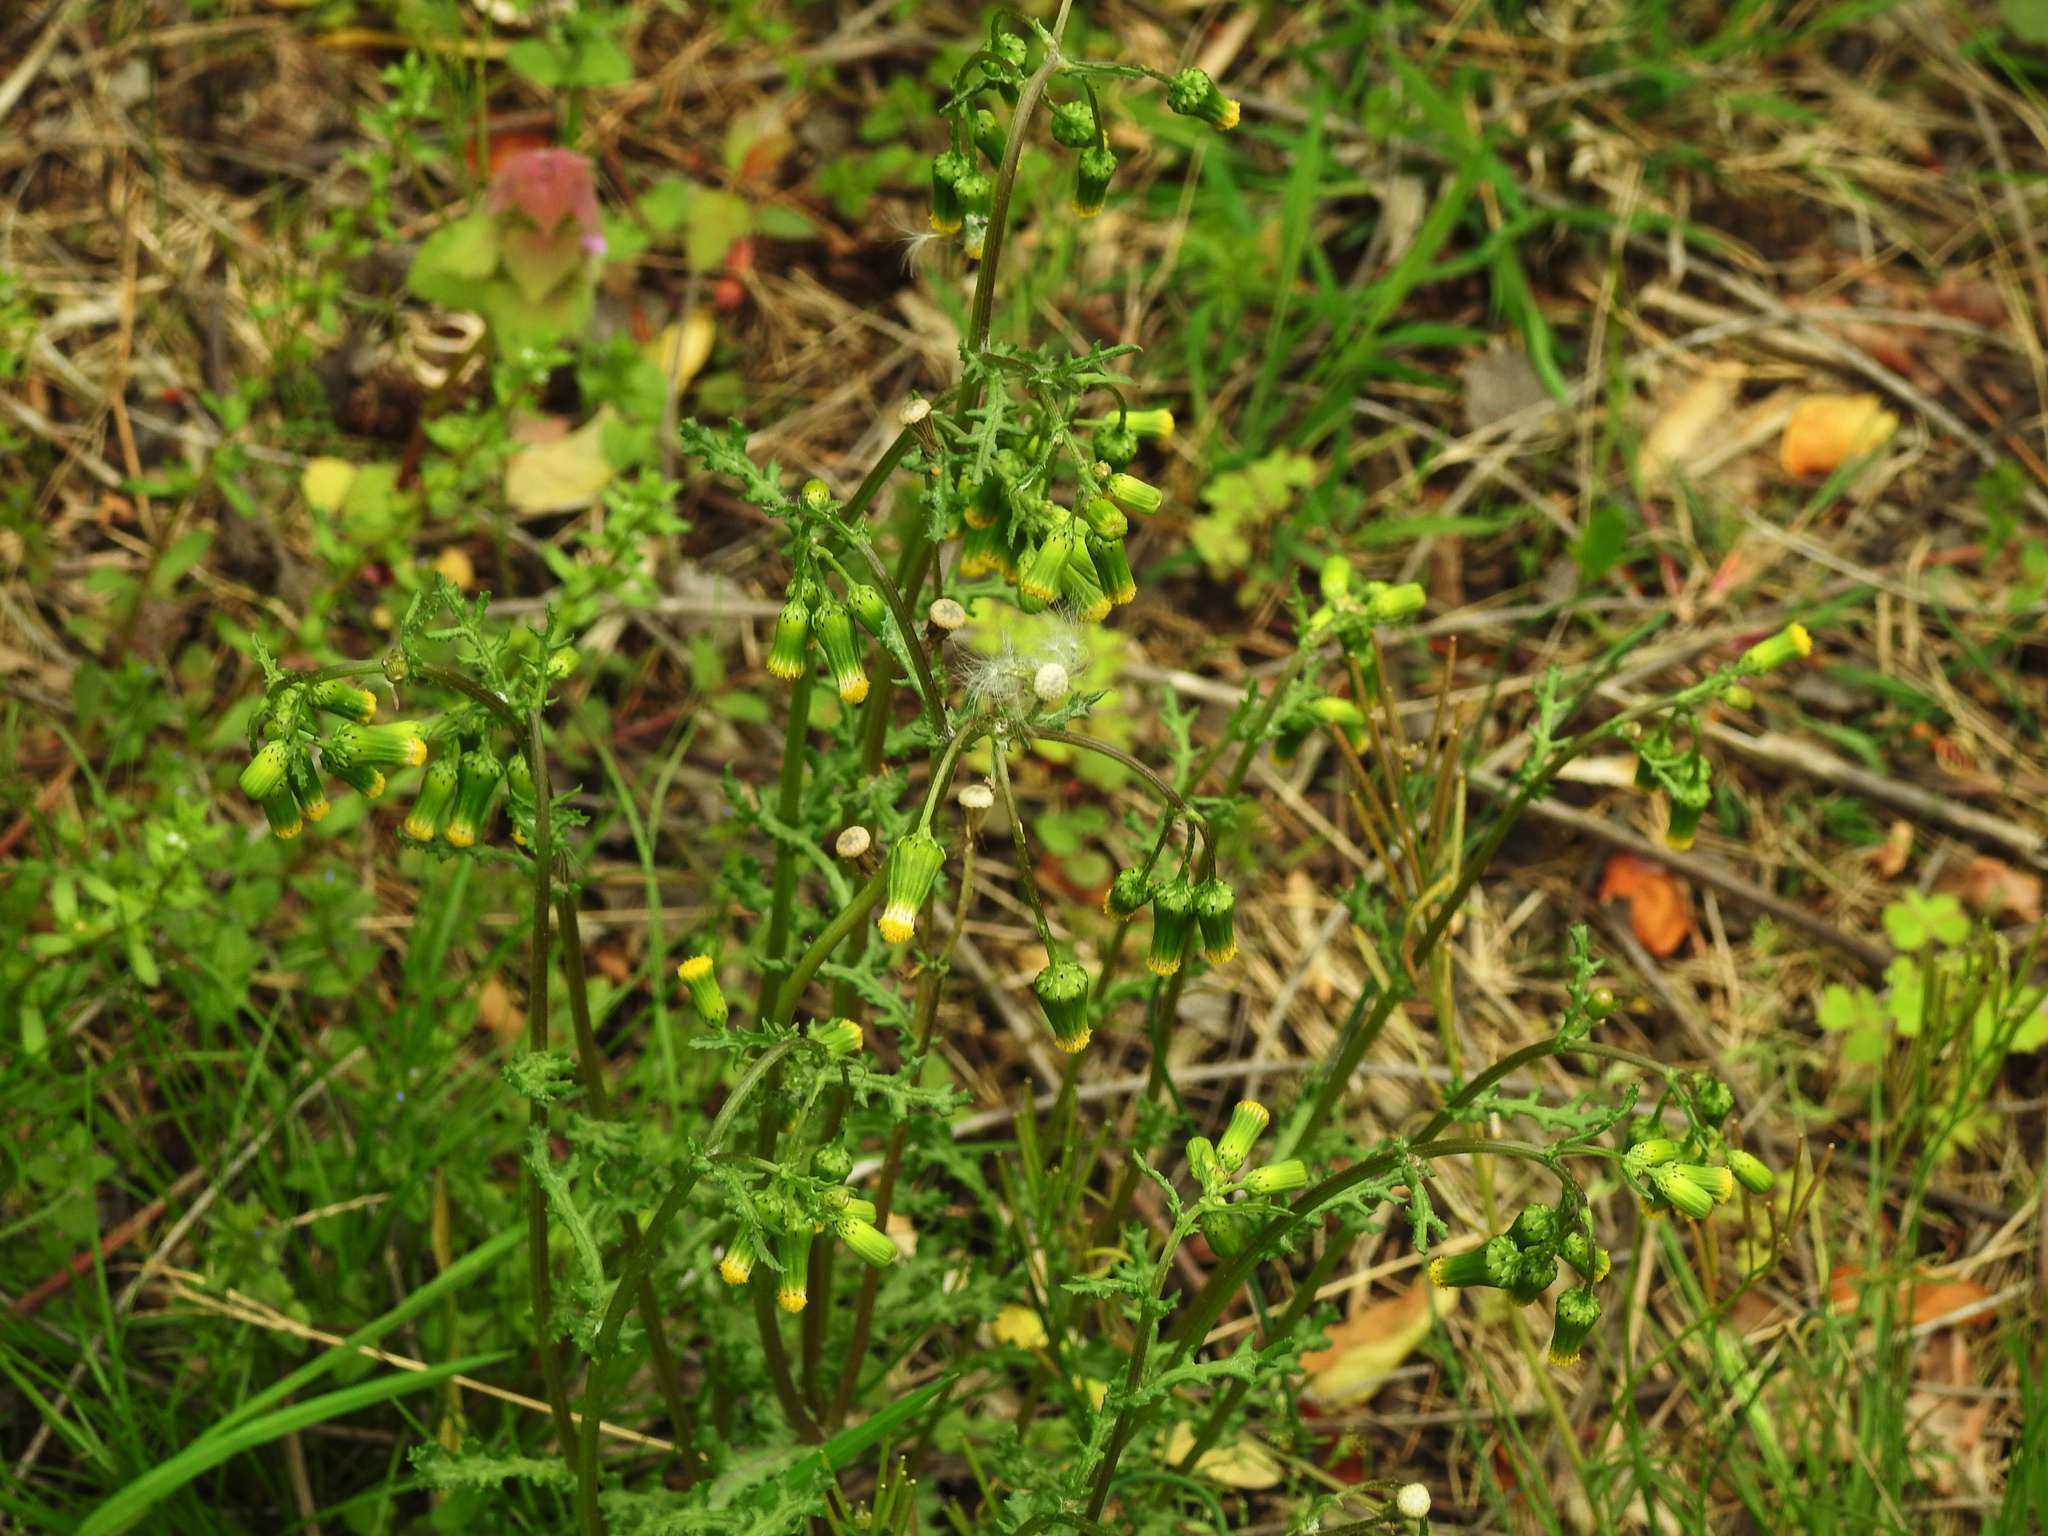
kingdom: Plantae
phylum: Tracheophyta
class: Magnoliopsida
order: Asterales
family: Asteraceae
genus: Senecio
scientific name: Senecio vulgaris
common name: Old-man-in-the-spring
